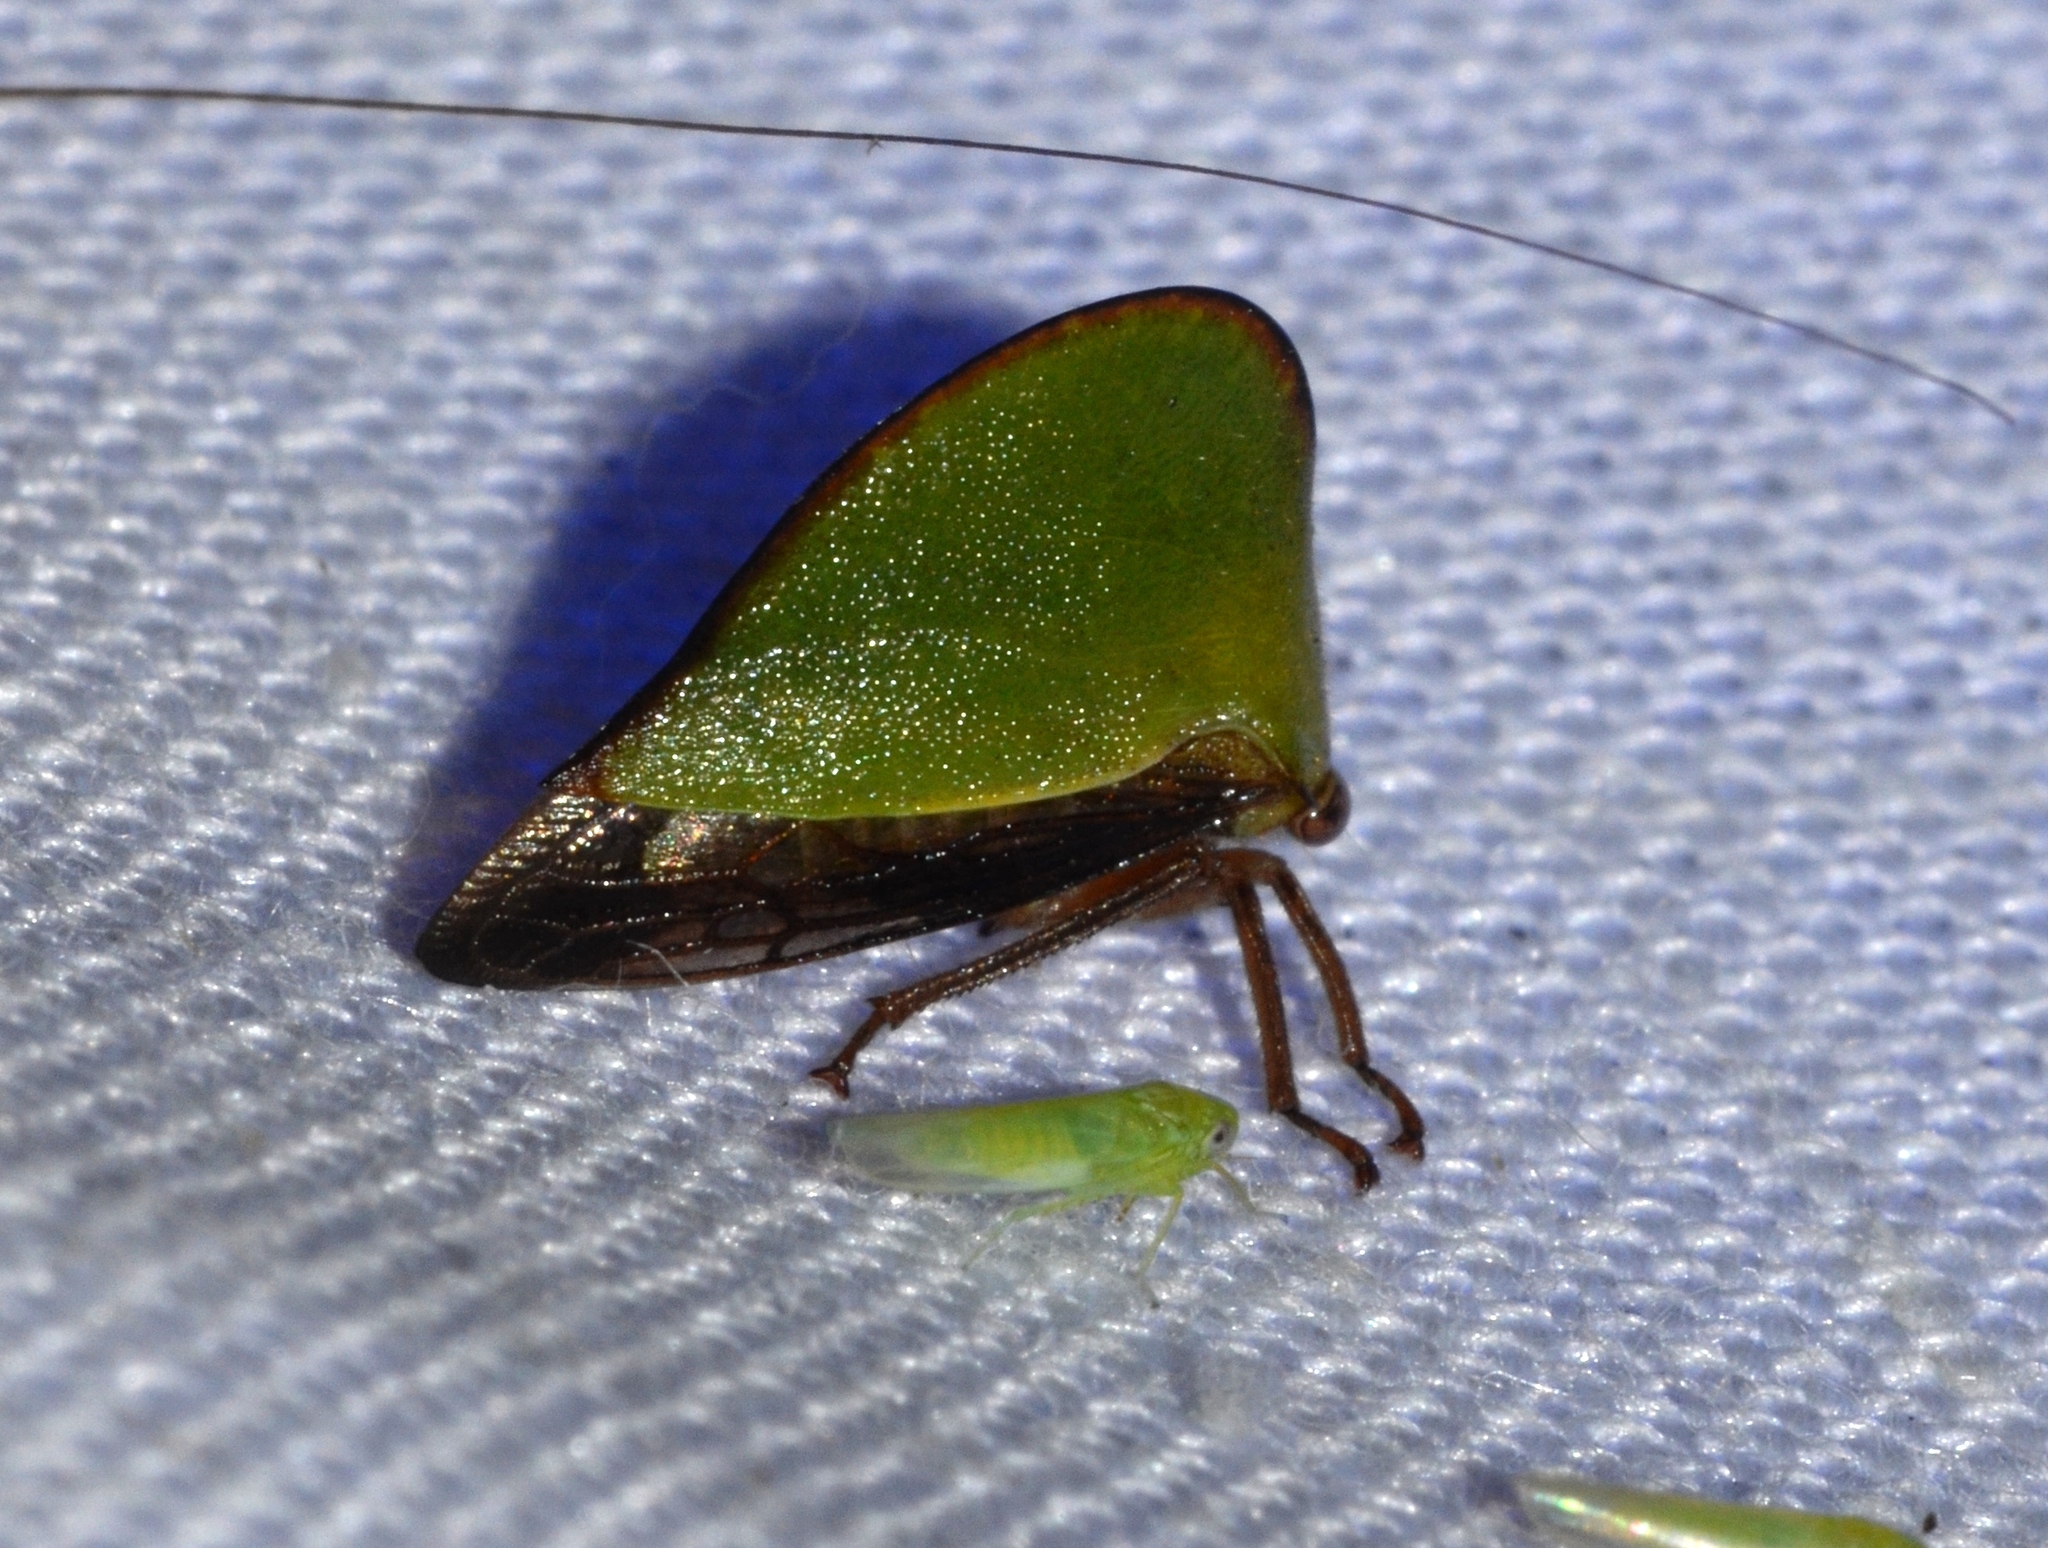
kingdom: Animalia
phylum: Arthropoda
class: Insecta
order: Hemiptera
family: Membracidae
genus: Archasia
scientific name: Archasia belfragei
